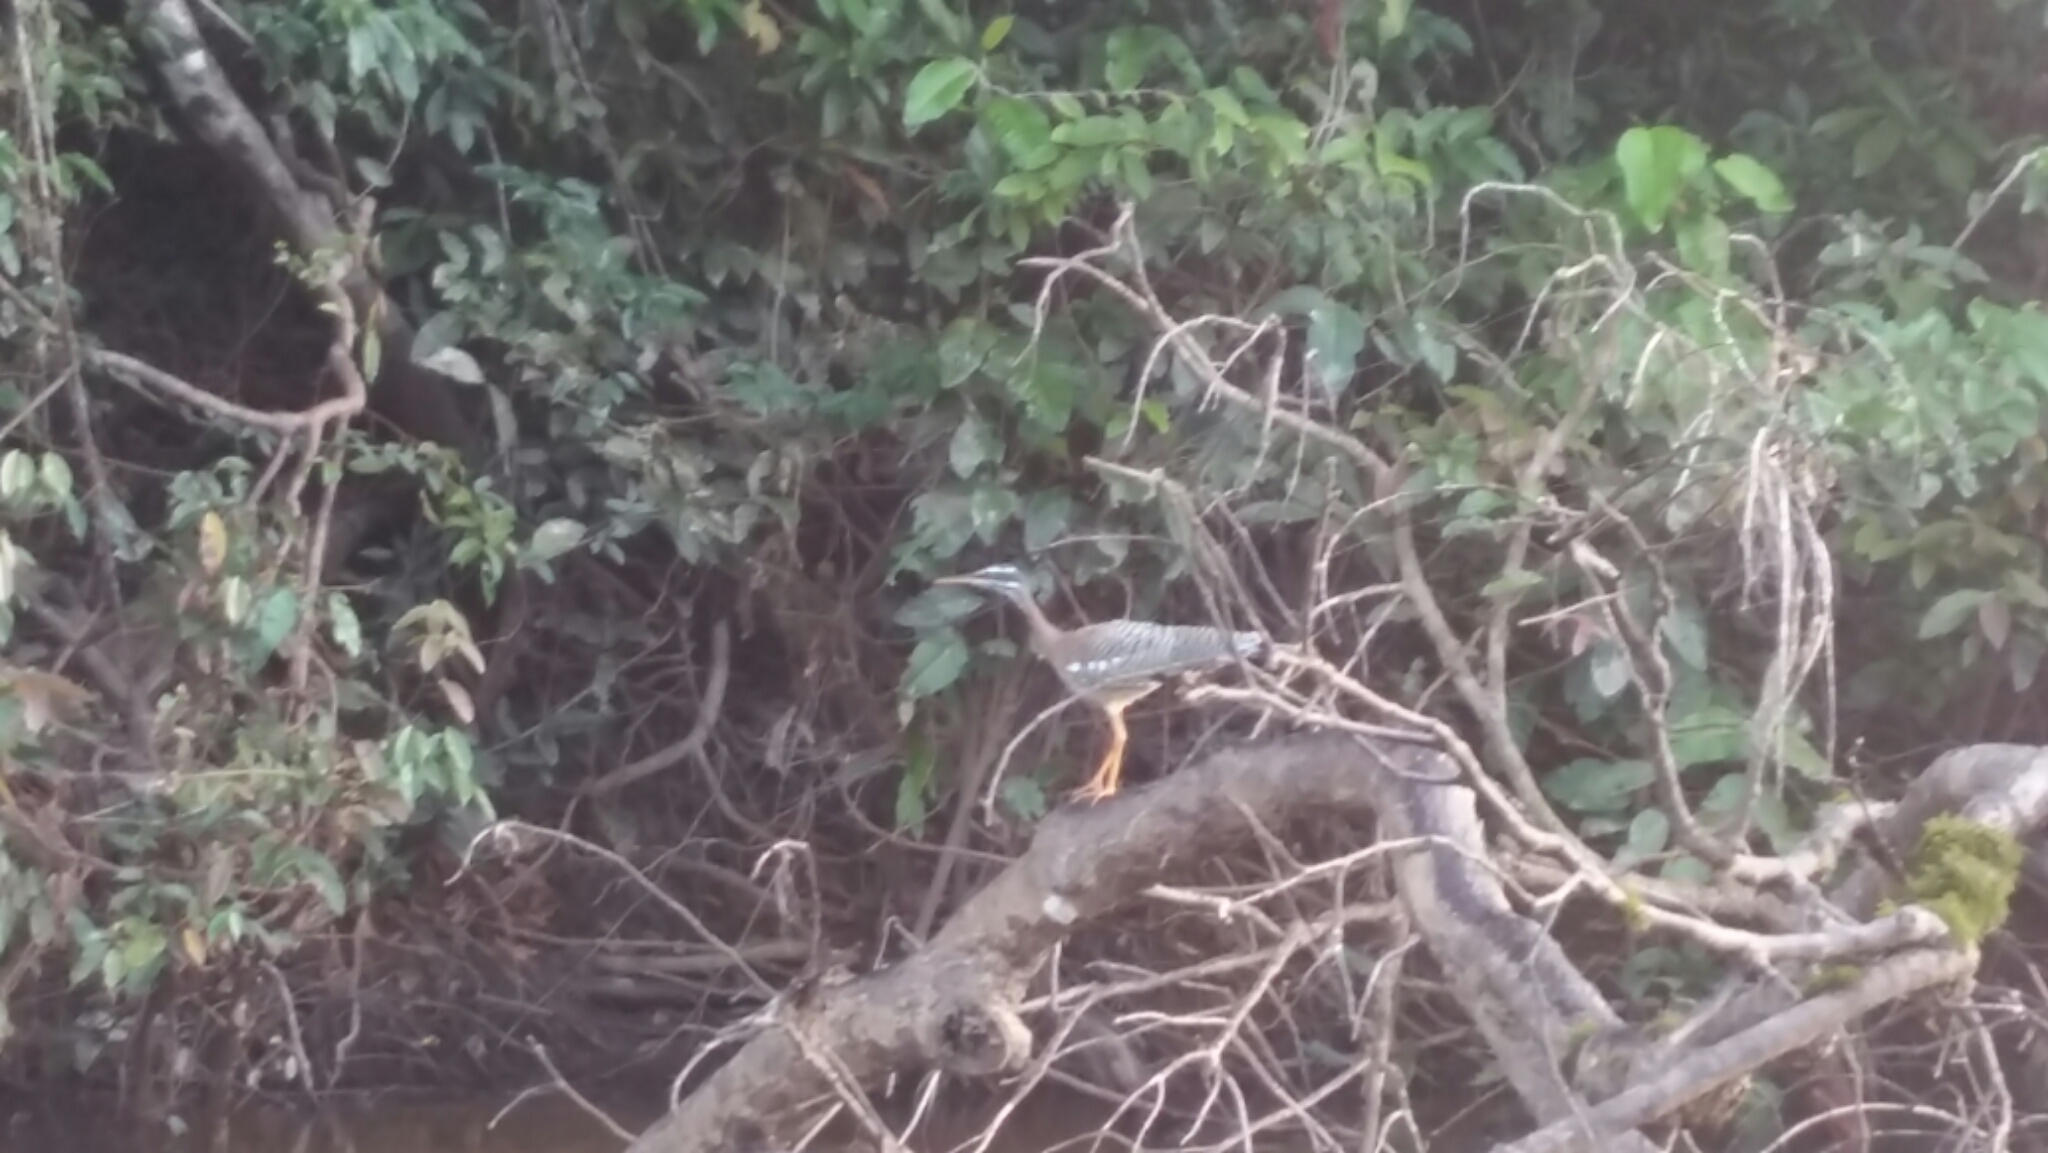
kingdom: Animalia
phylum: Chordata
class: Aves
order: Eurypygiformes
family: Eurypygidae
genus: Eurypyga
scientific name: Eurypyga helias
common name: Sunbittern
